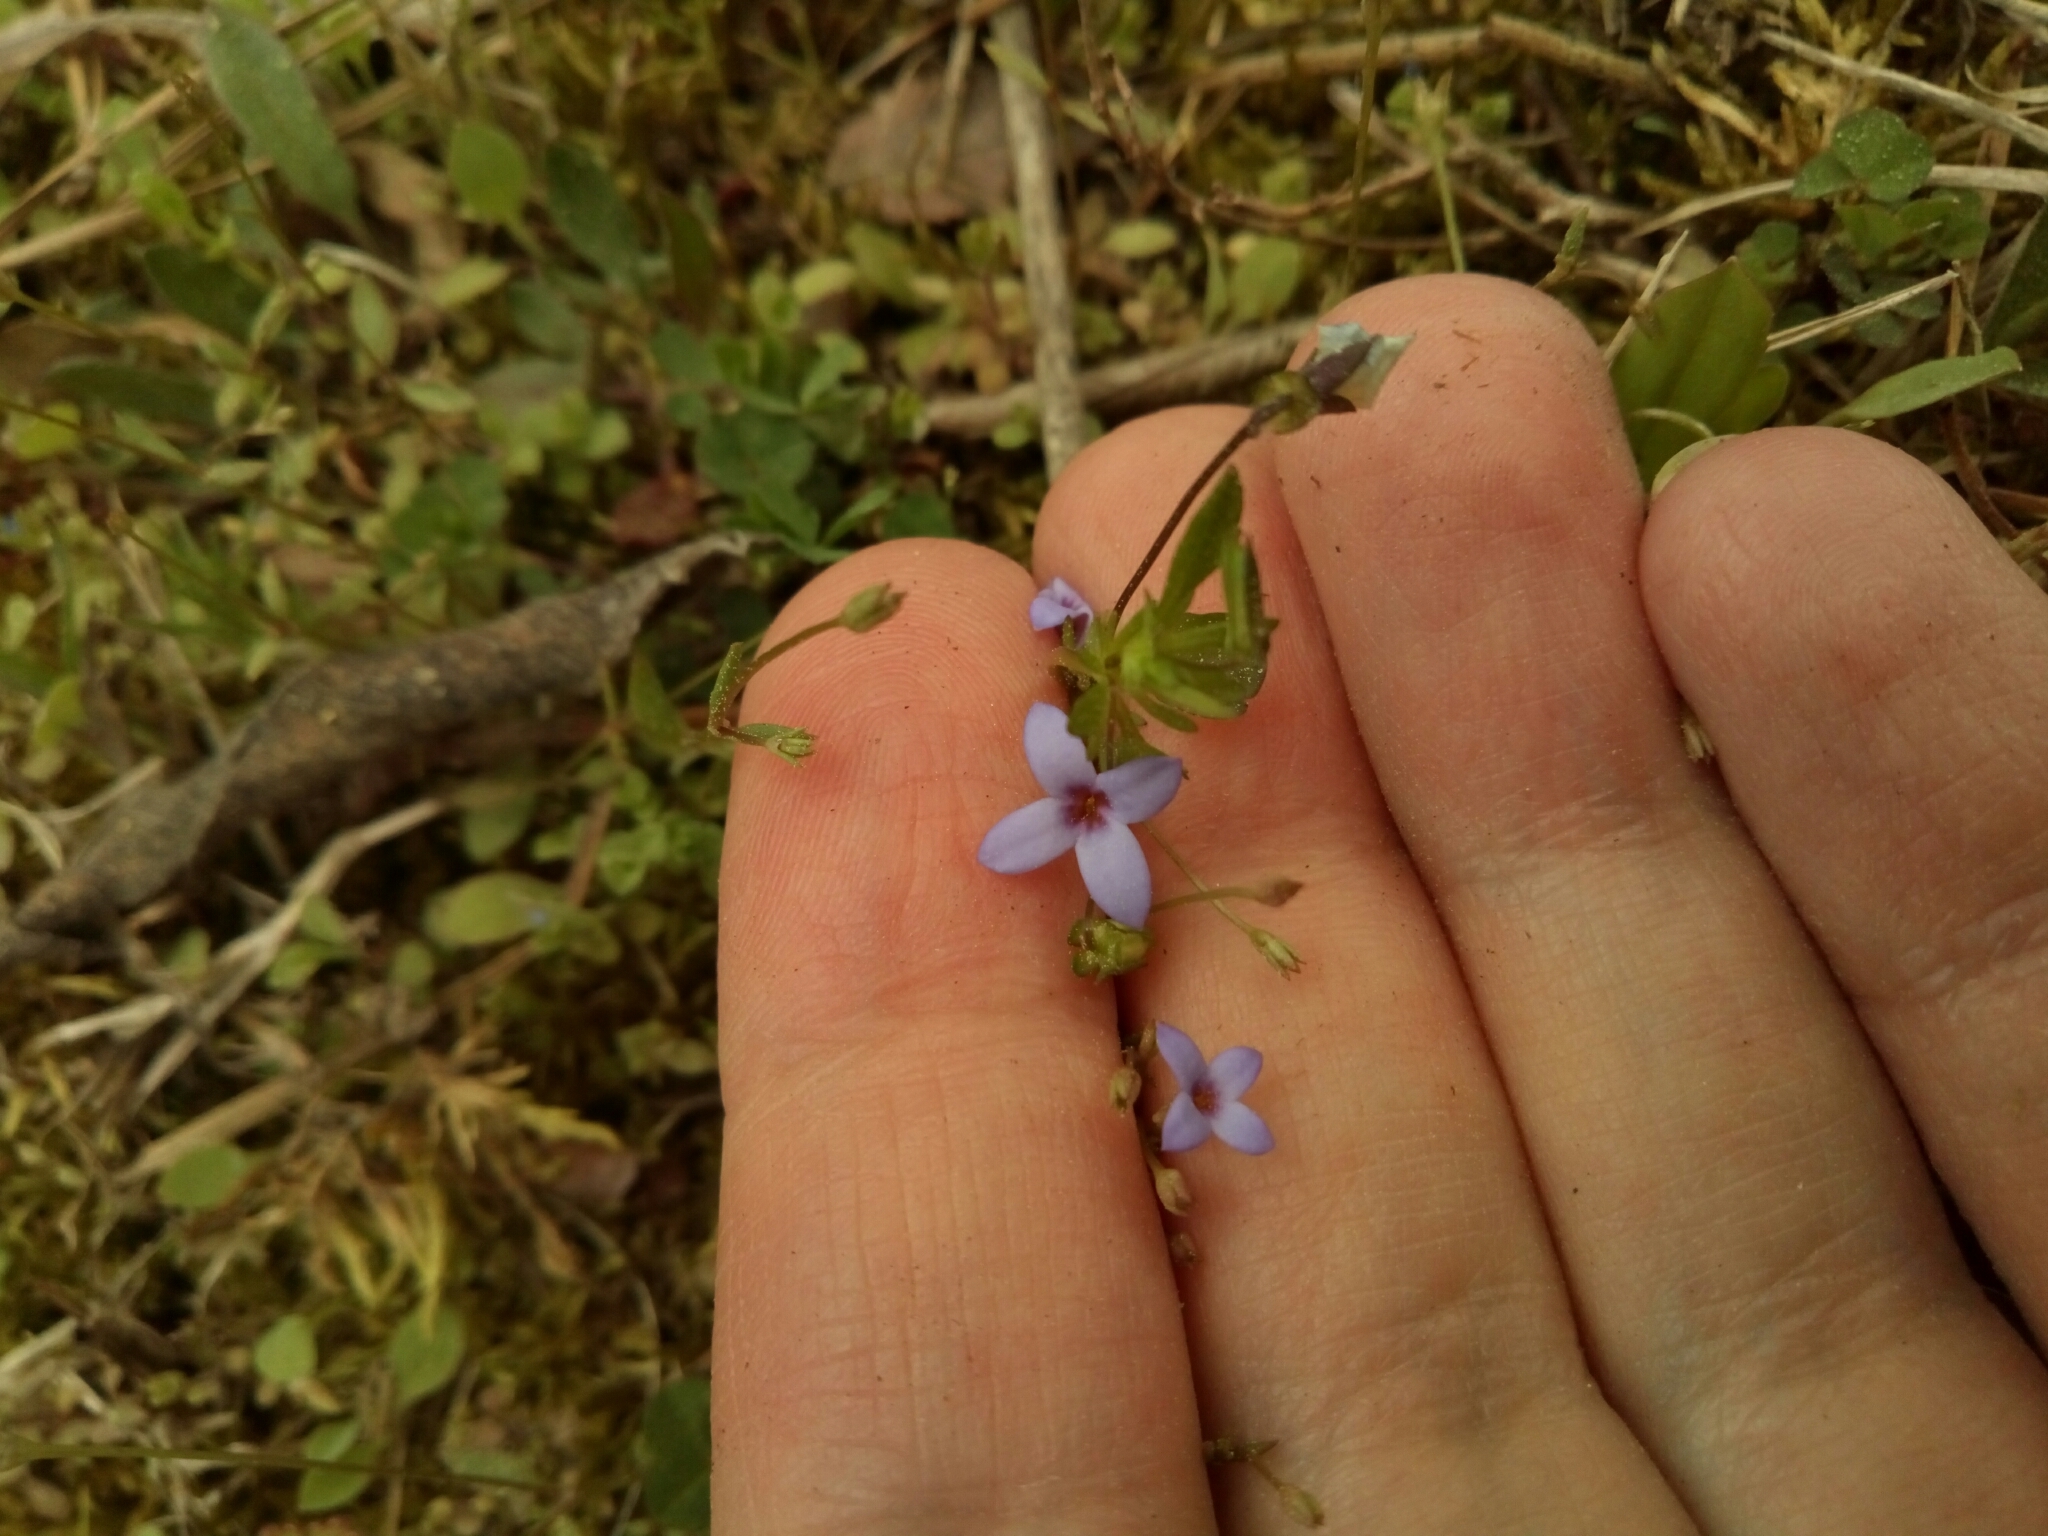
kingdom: Plantae
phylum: Tracheophyta
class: Magnoliopsida
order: Gentianales
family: Rubiaceae
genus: Houstonia
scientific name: Houstonia pusilla
